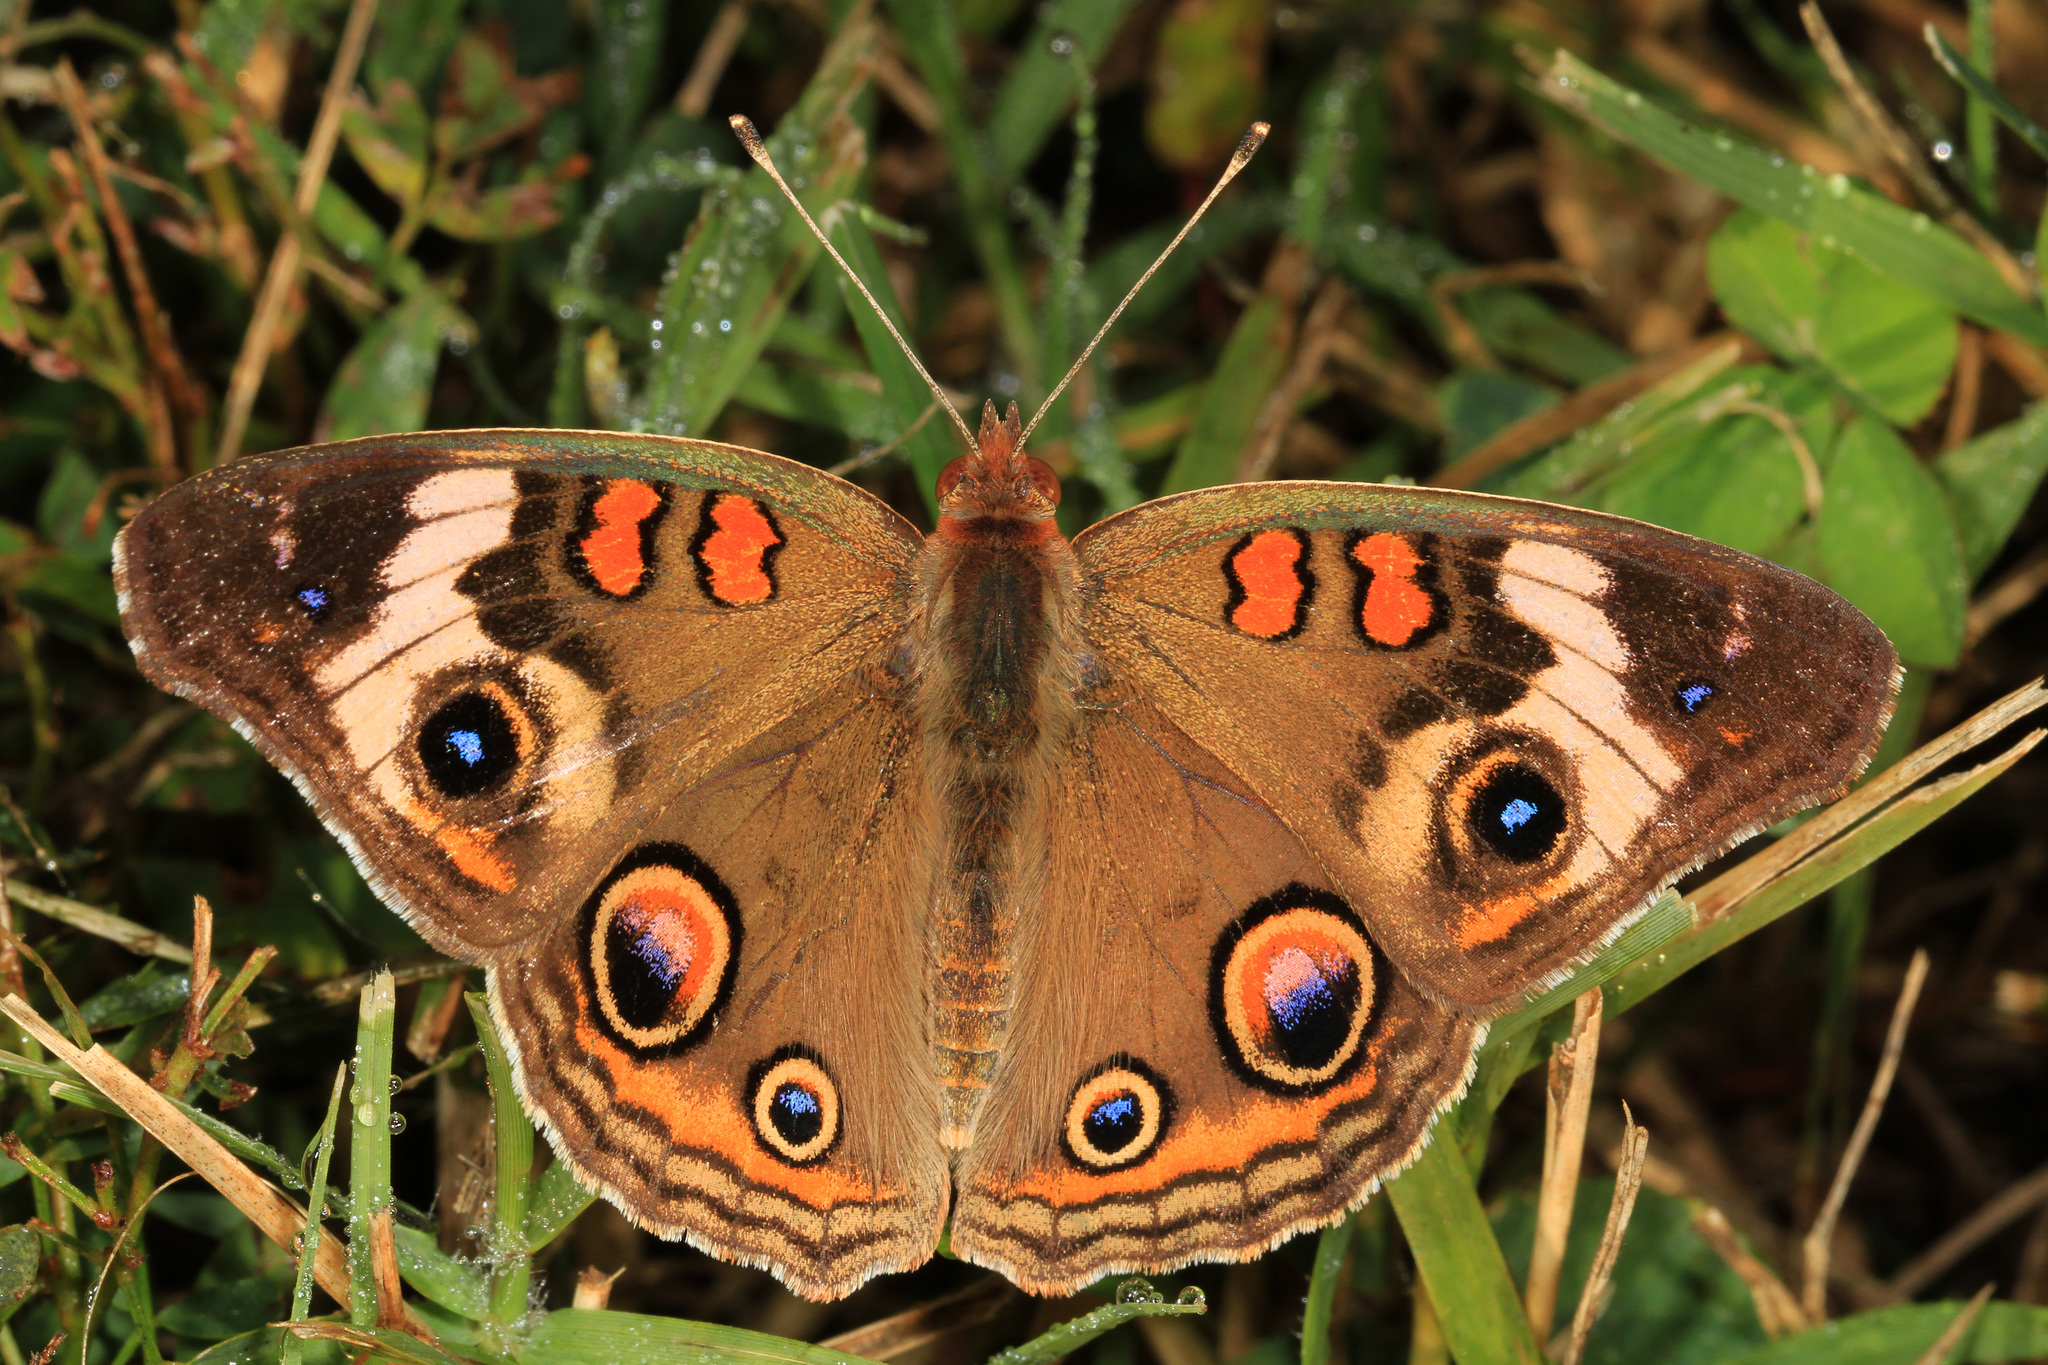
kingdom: Animalia
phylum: Arthropoda
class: Insecta
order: Lepidoptera
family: Nymphalidae
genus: Junonia
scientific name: Junonia coenia
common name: Common buckeye
